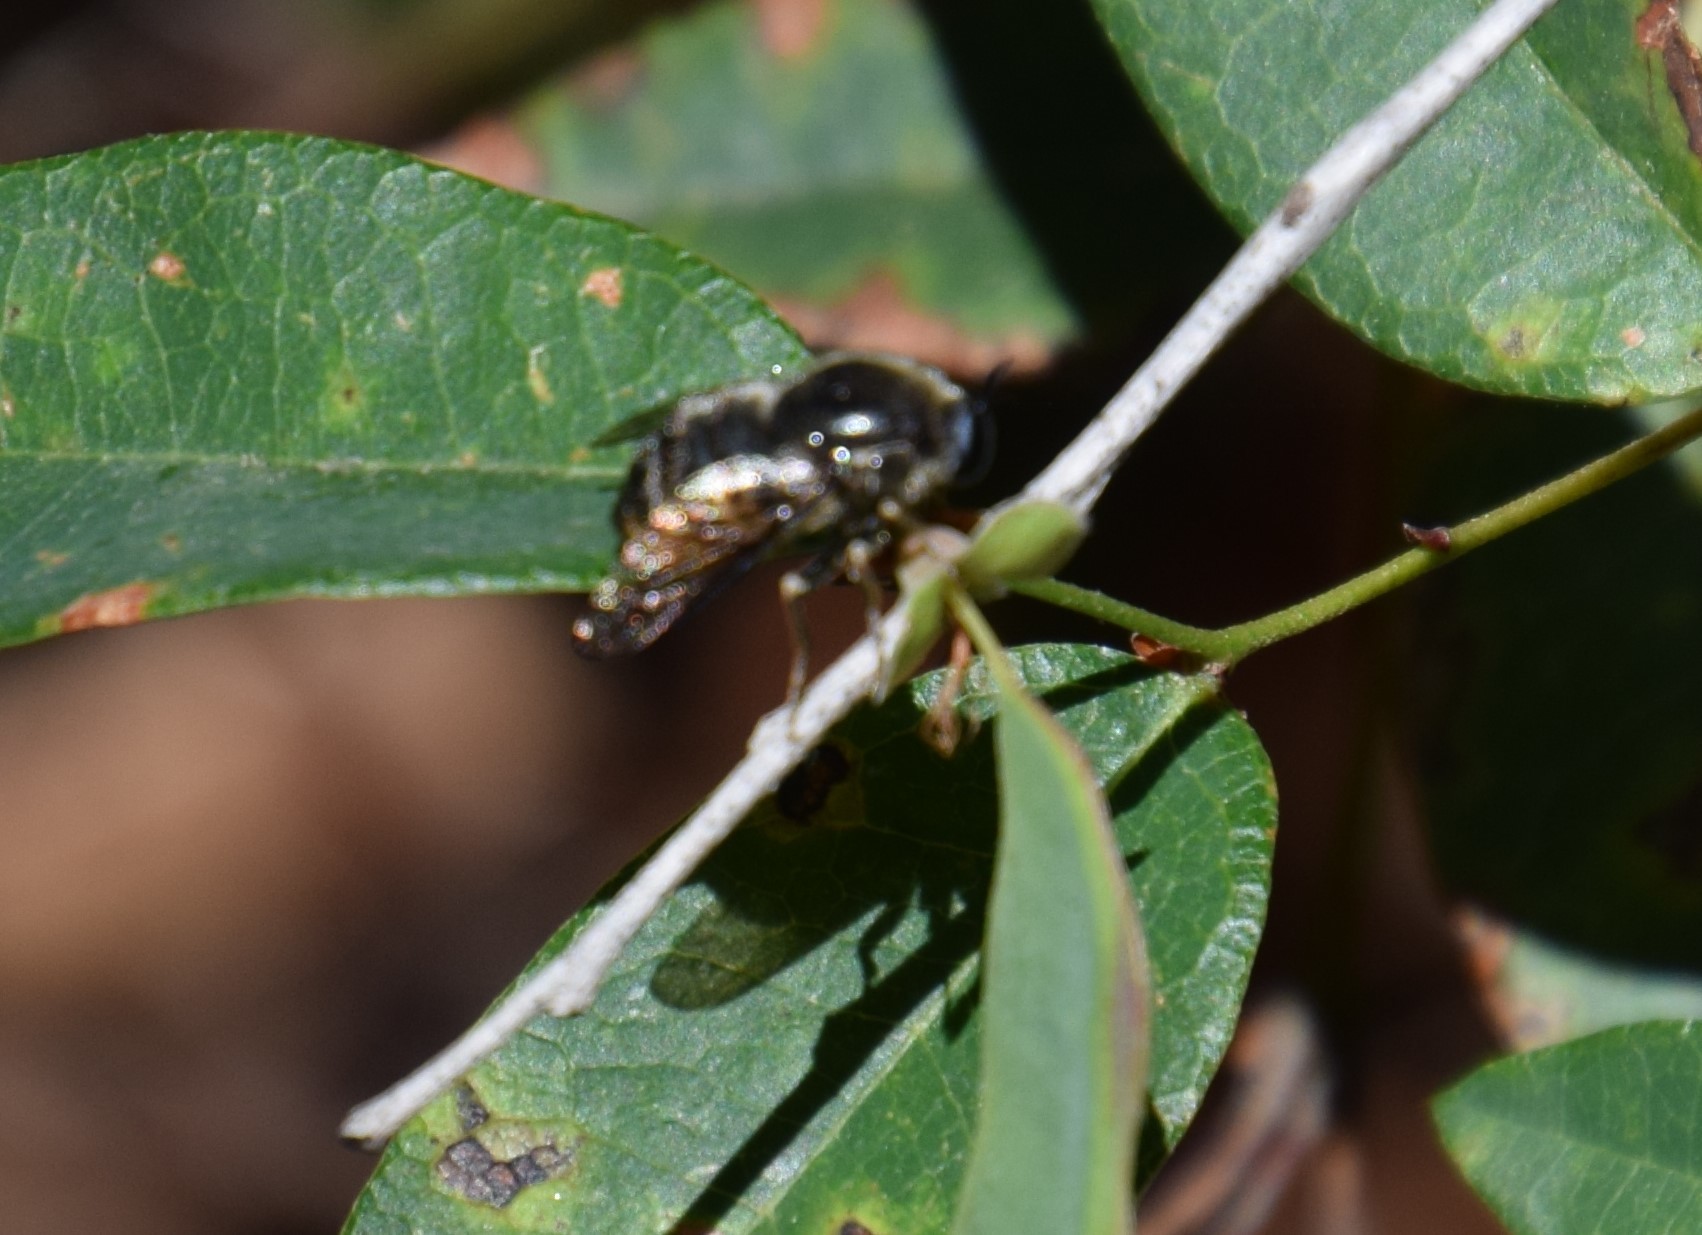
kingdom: Animalia
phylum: Arthropoda
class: Insecta
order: Diptera
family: Acroceridae
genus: Panops
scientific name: Panops baudini
